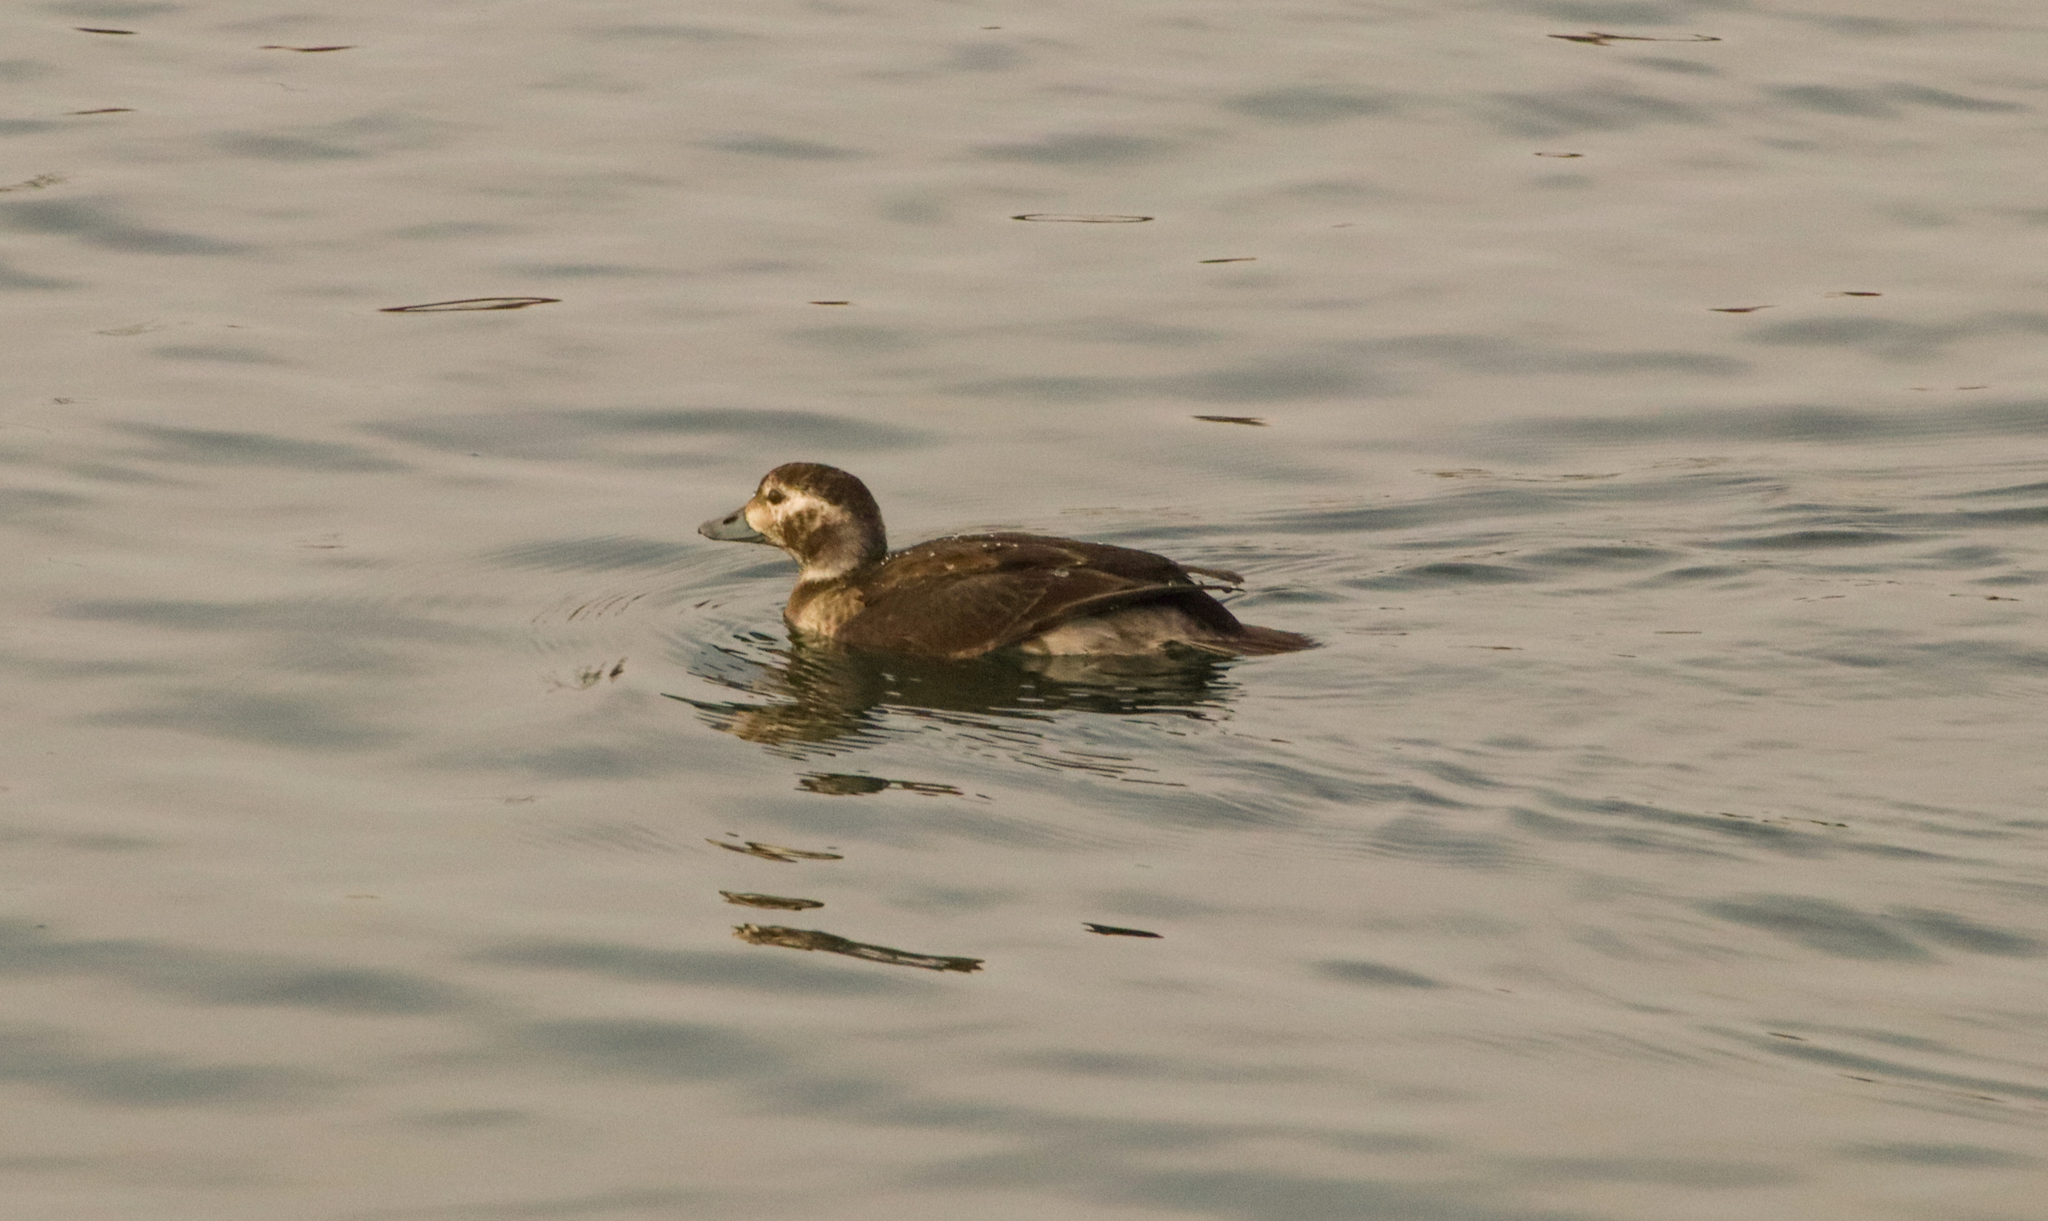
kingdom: Animalia
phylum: Chordata
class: Aves
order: Anseriformes
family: Anatidae
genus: Clangula
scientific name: Clangula hyemalis
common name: Long-tailed duck
